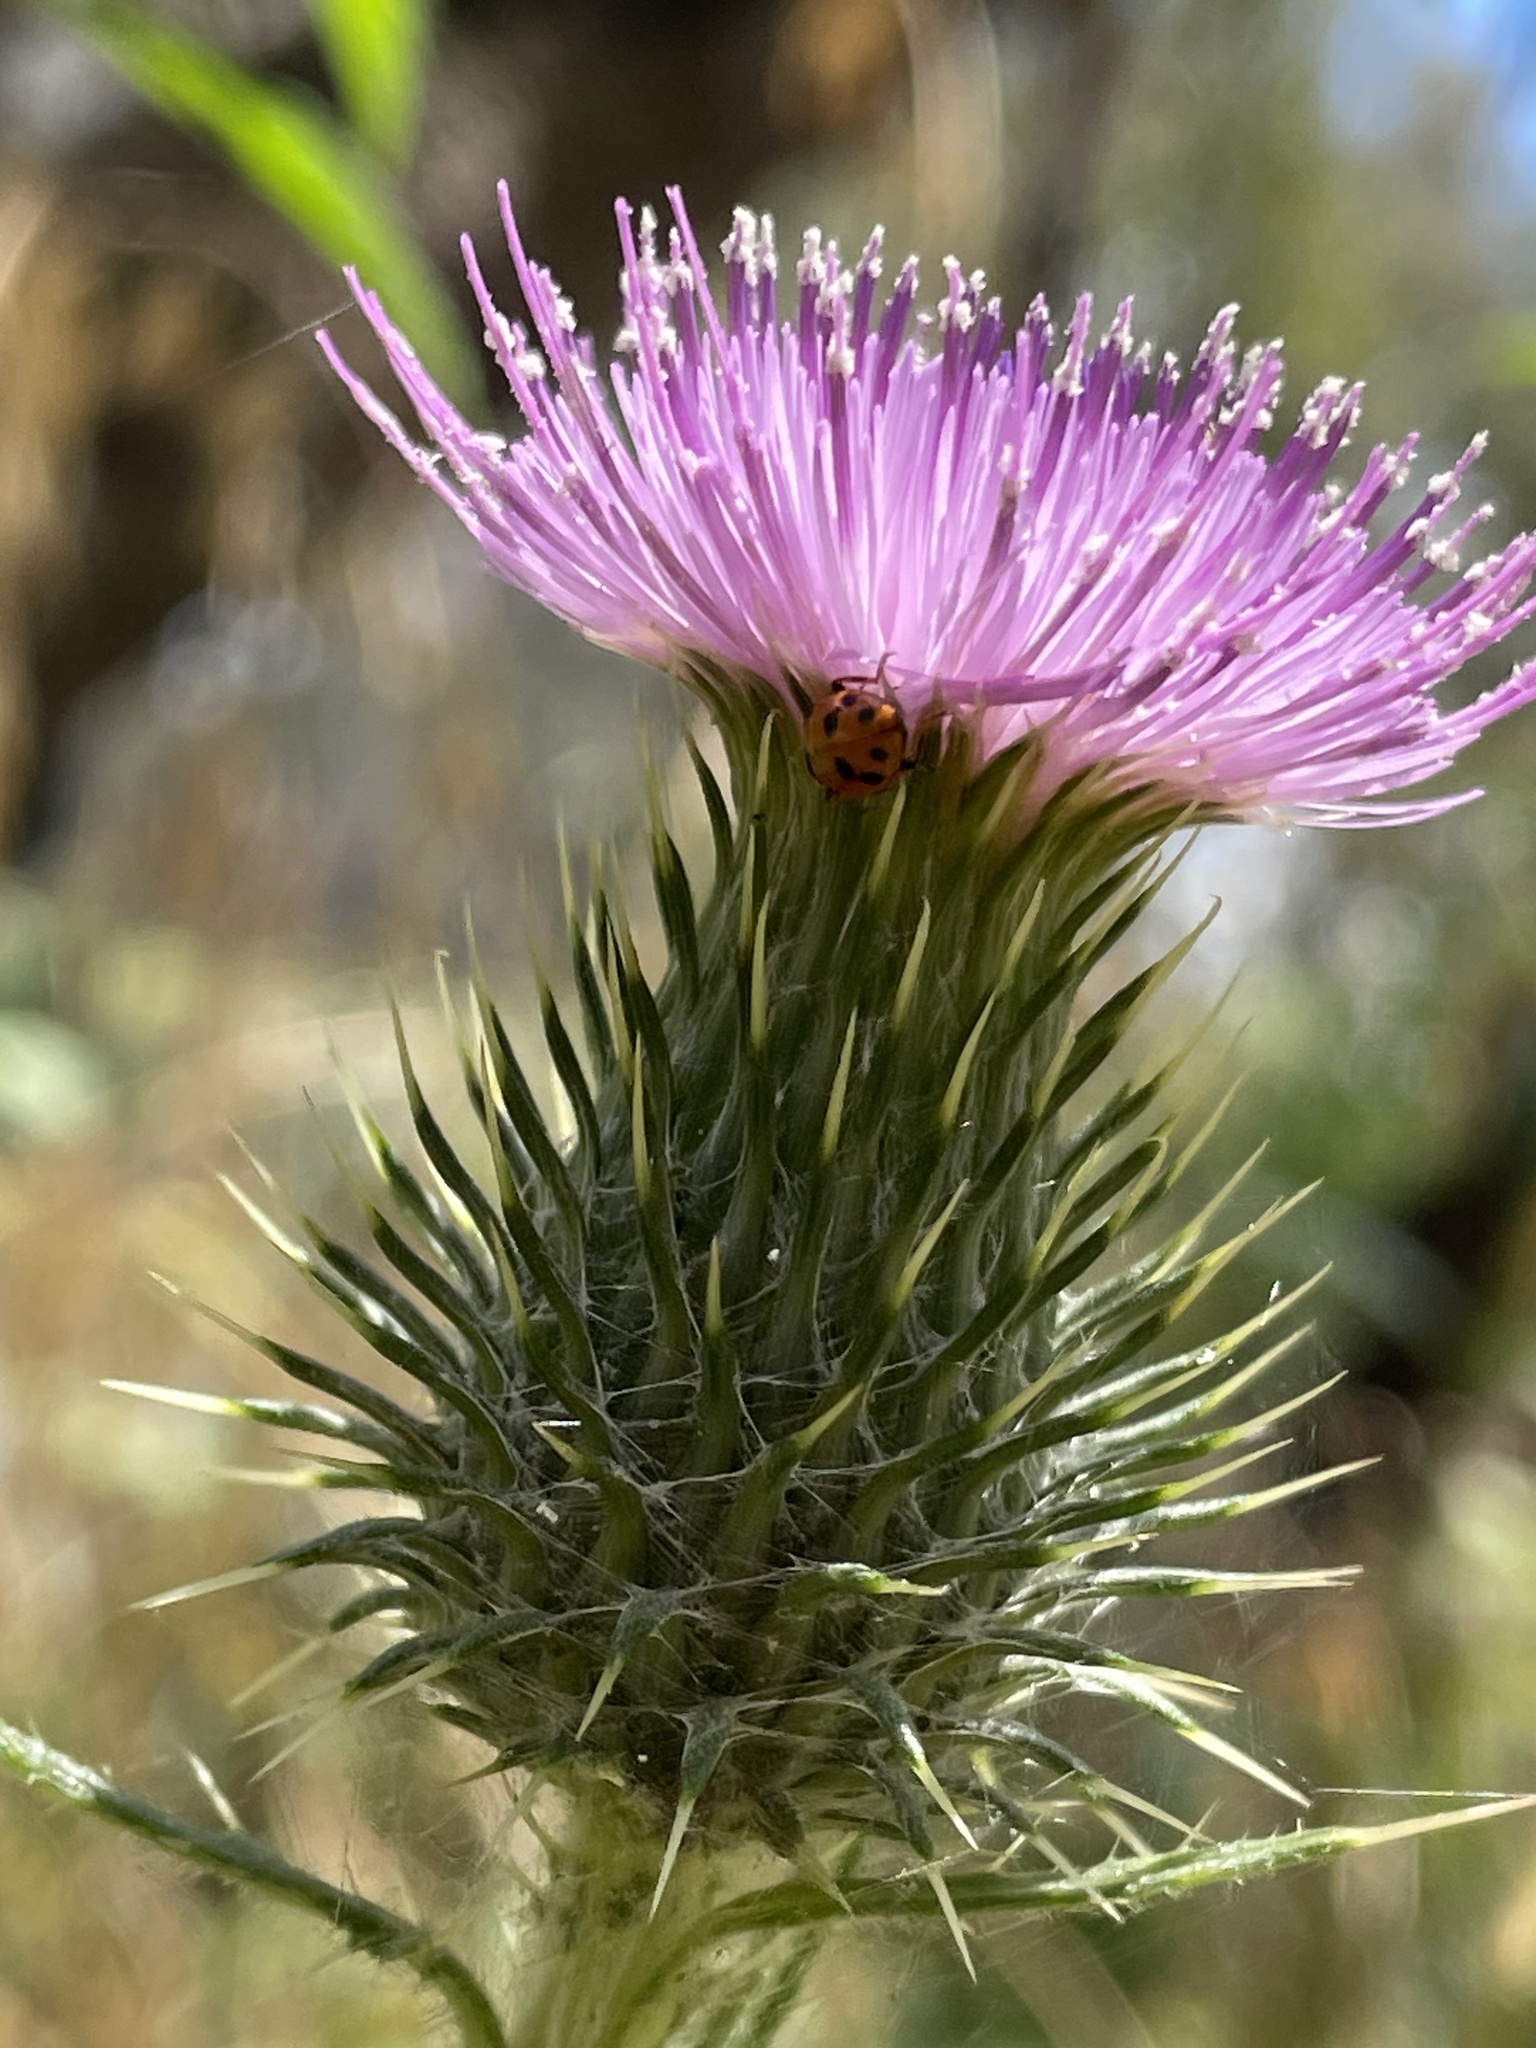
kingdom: Animalia
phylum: Arthropoda
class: Insecta
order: Coleoptera
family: Coccinellidae
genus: Hippodamia
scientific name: Hippodamia variegata
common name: Ladybird beetle
